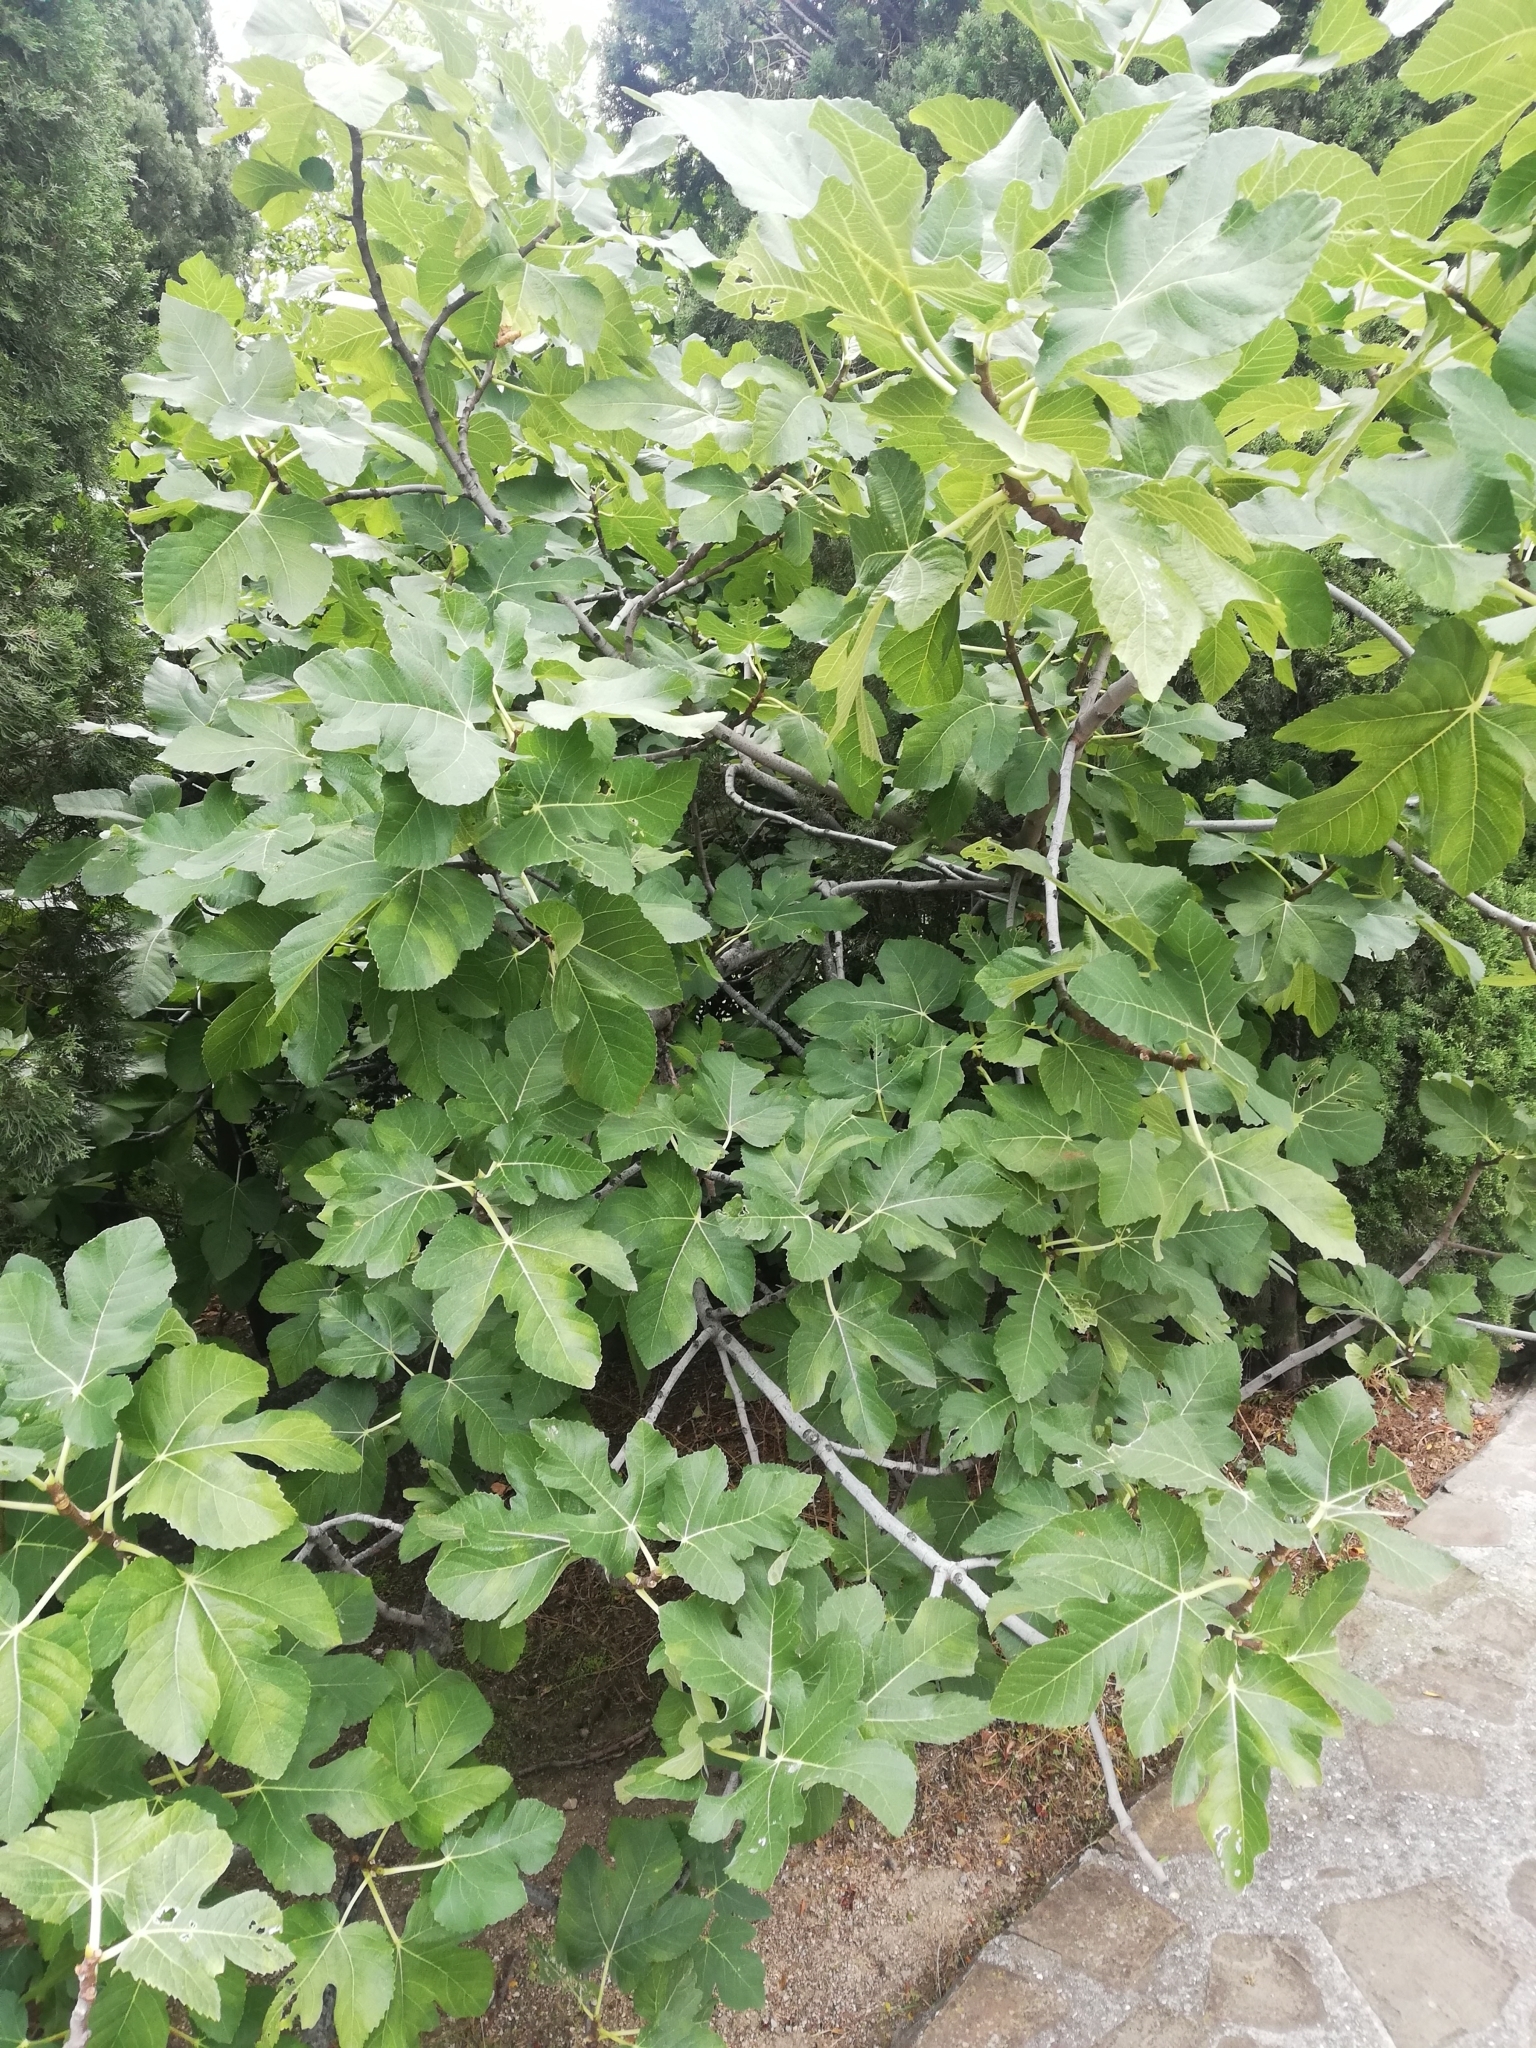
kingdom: Plantae
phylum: Tracheophyta
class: Magnoliopsida
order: Rosales
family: Moraceae
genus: Ficus
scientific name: Ficus carica
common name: Fig
